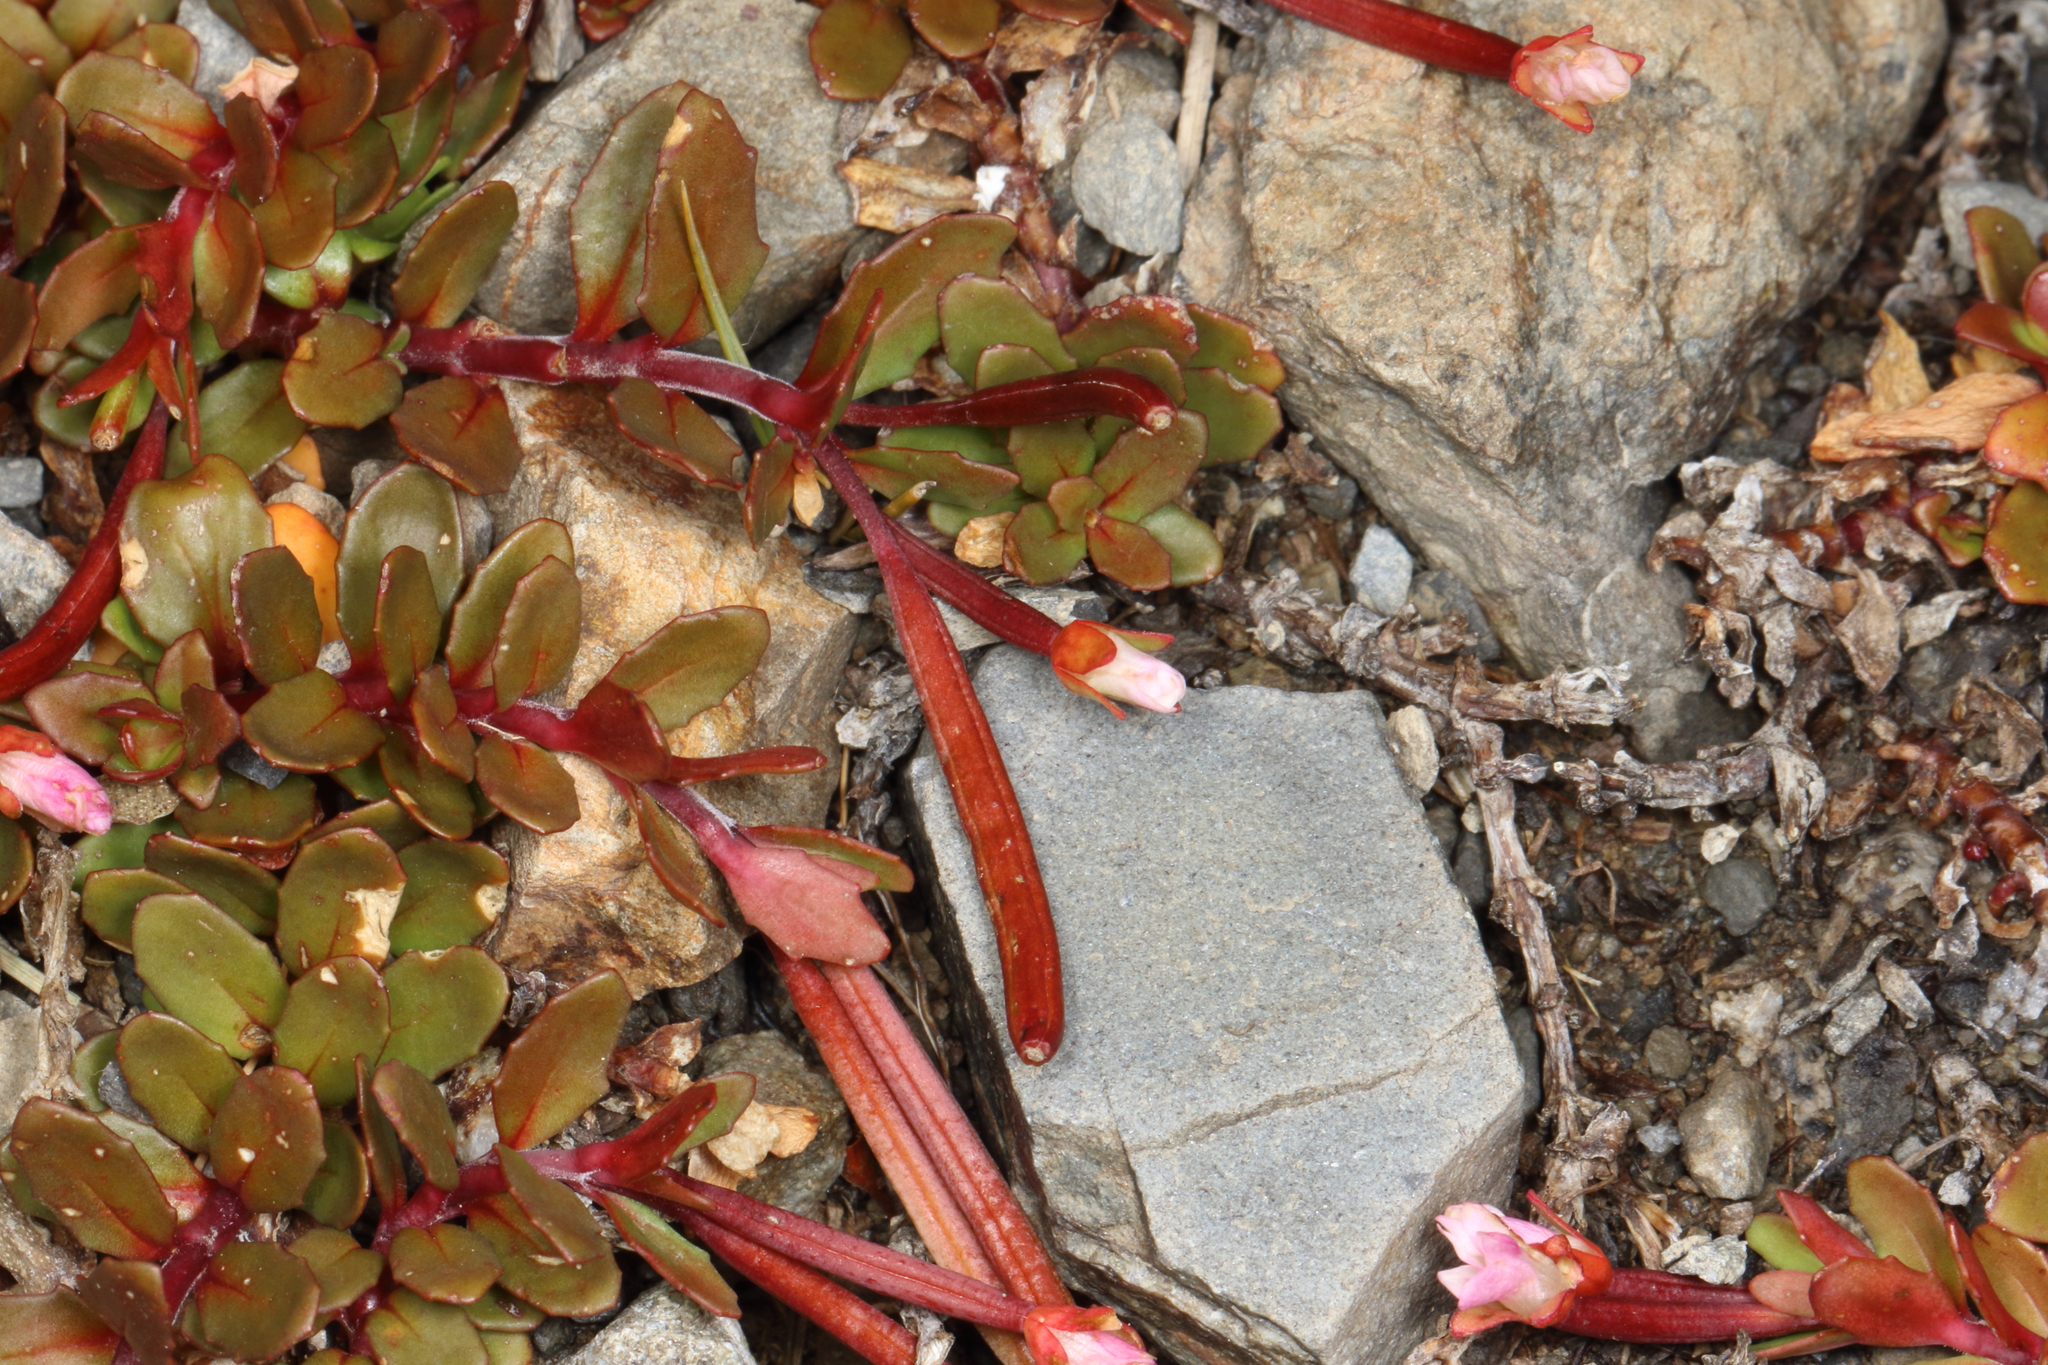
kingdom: Plantae
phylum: Tracheophyta
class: Magnoliopsida
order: Myrtales
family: Onagraceae
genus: Epilobium
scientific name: Epilobium tasmanicum
